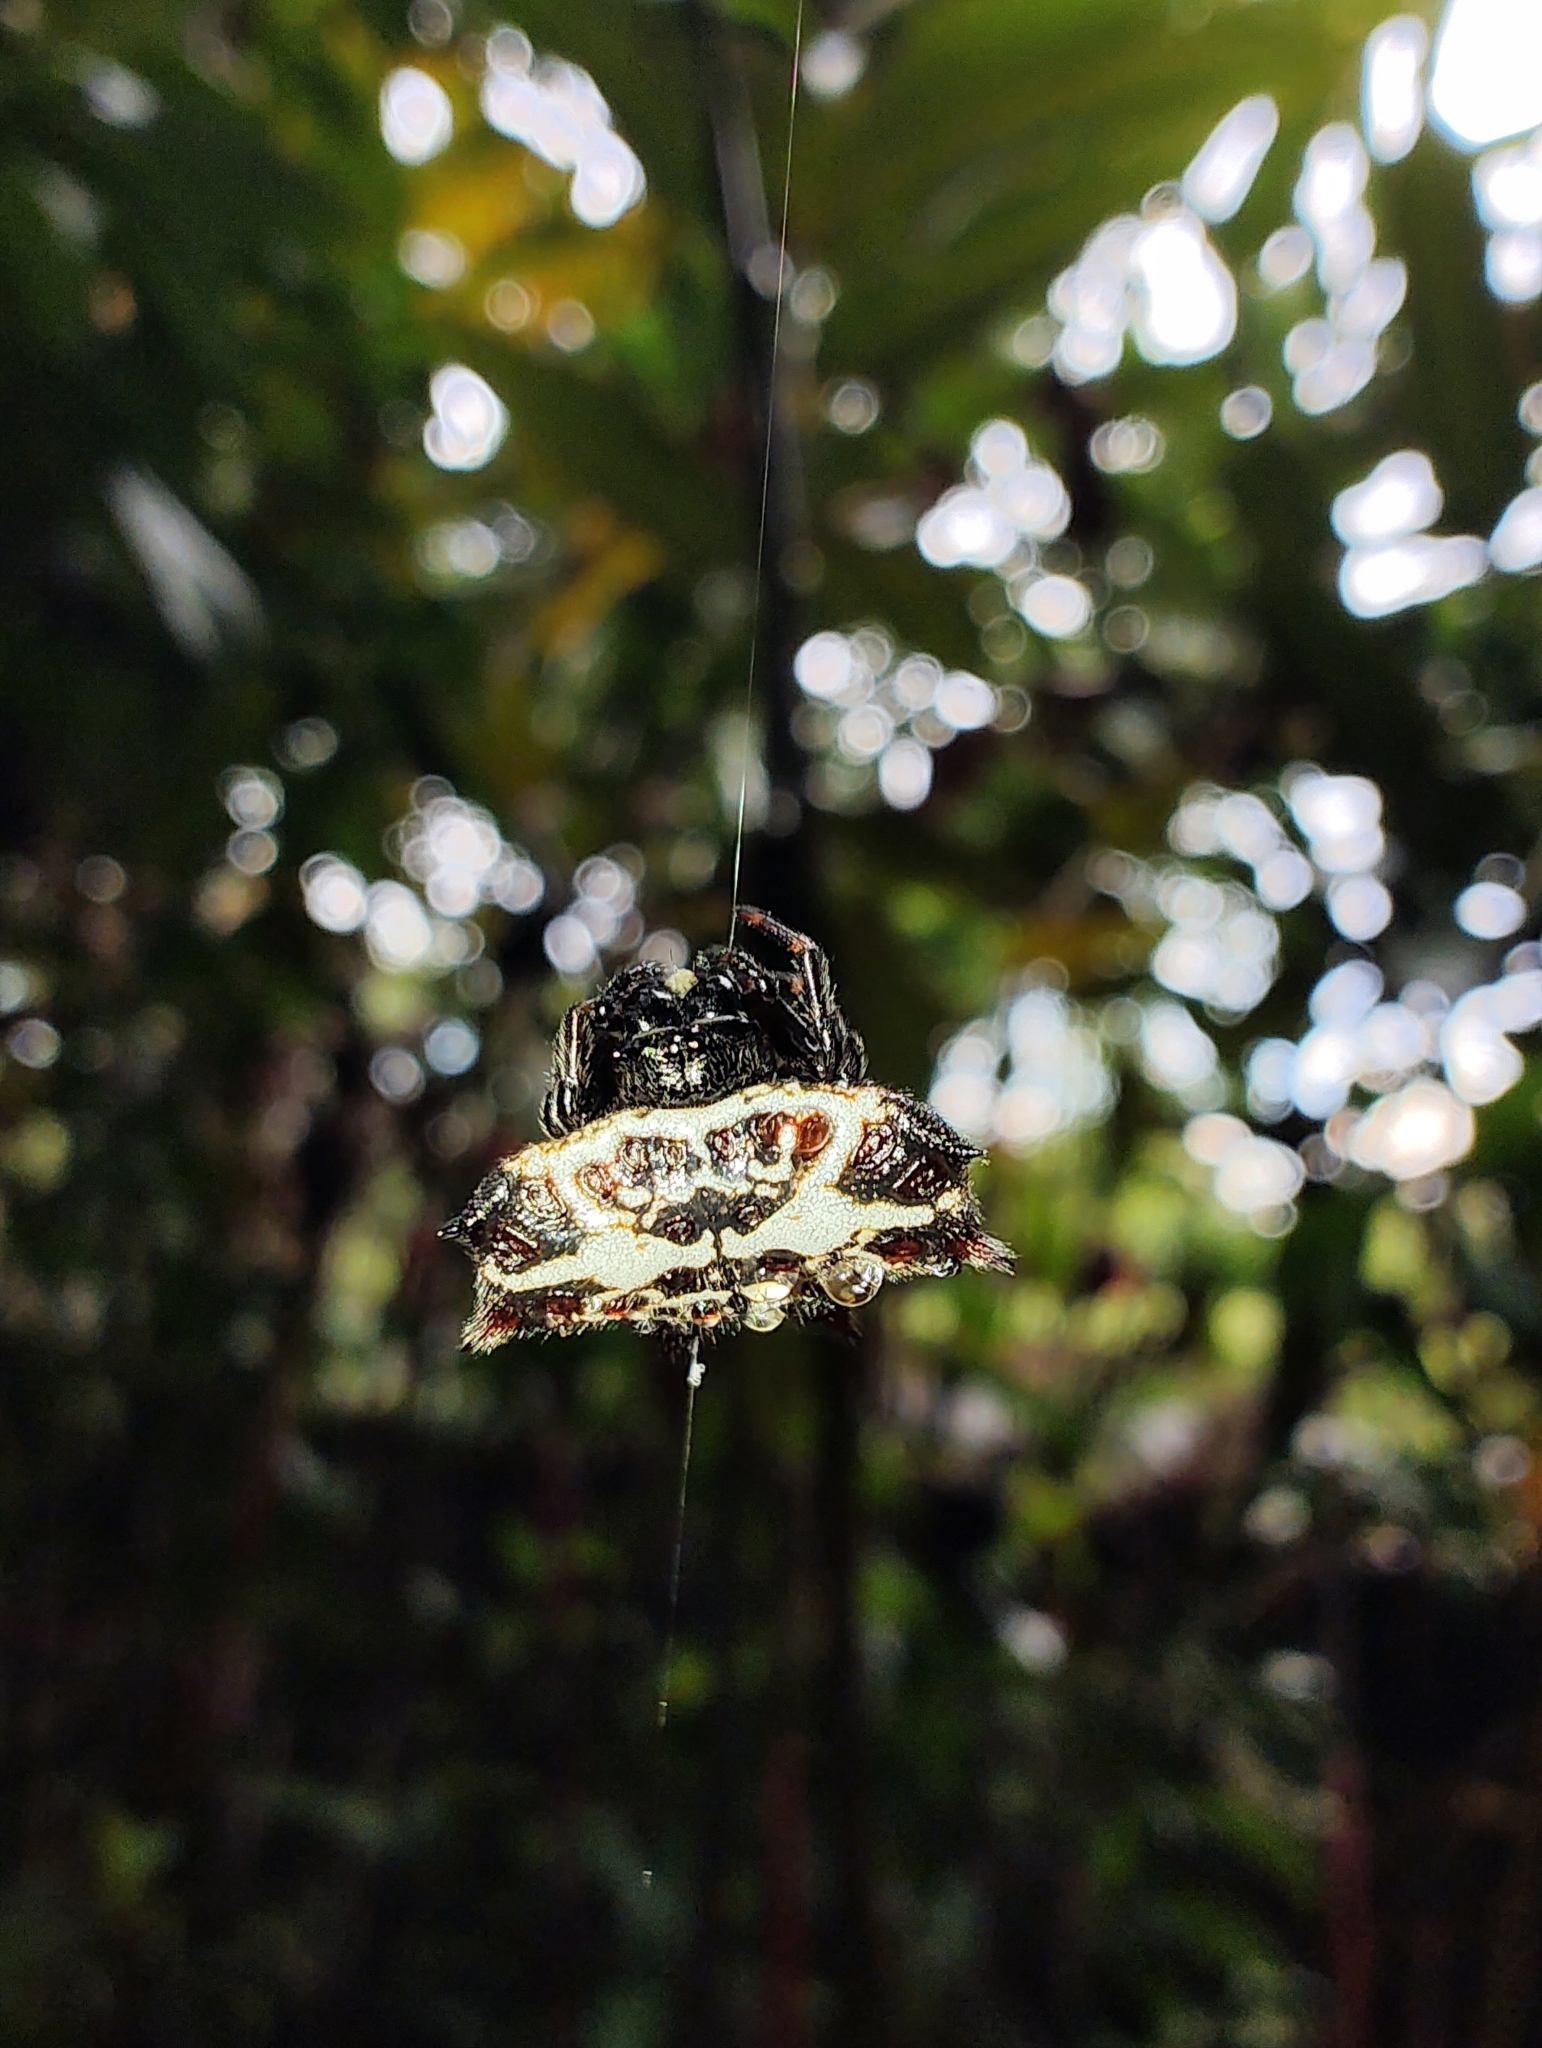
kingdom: Animalia
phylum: Arthropoda
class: Arachnida
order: Araneae
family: Araneidae
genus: Gasteracantha
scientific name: Gasteracantha cancriformis
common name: Orb weavers
